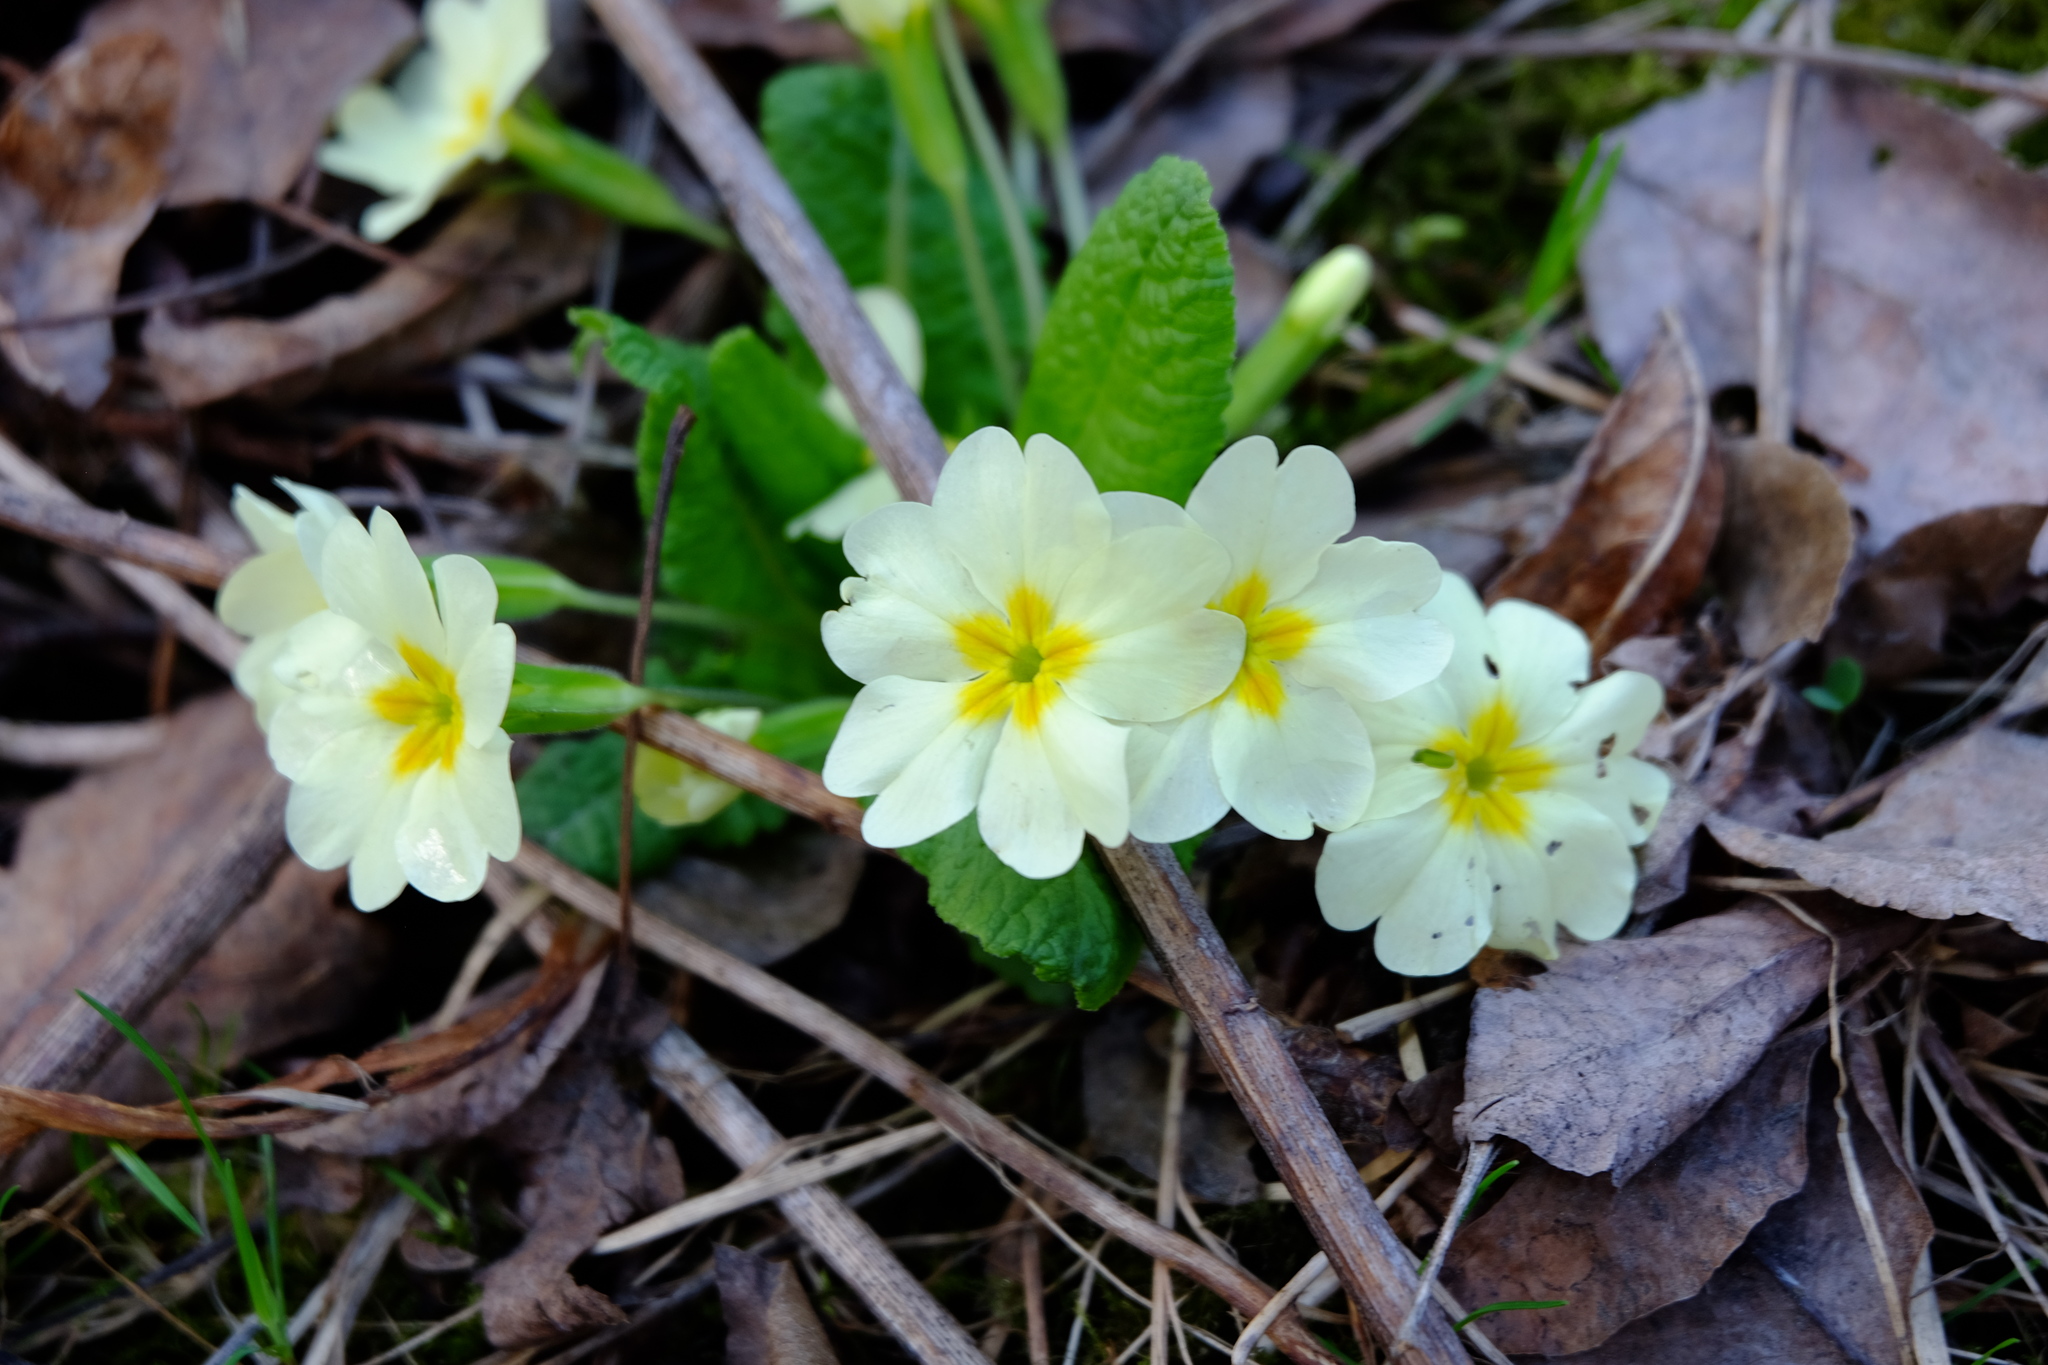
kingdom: Plantae
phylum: Tracheophyta
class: Magnoliopsida
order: Ericales
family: Primulaceae
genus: Primula
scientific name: Primula vulgaris
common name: Primrose
